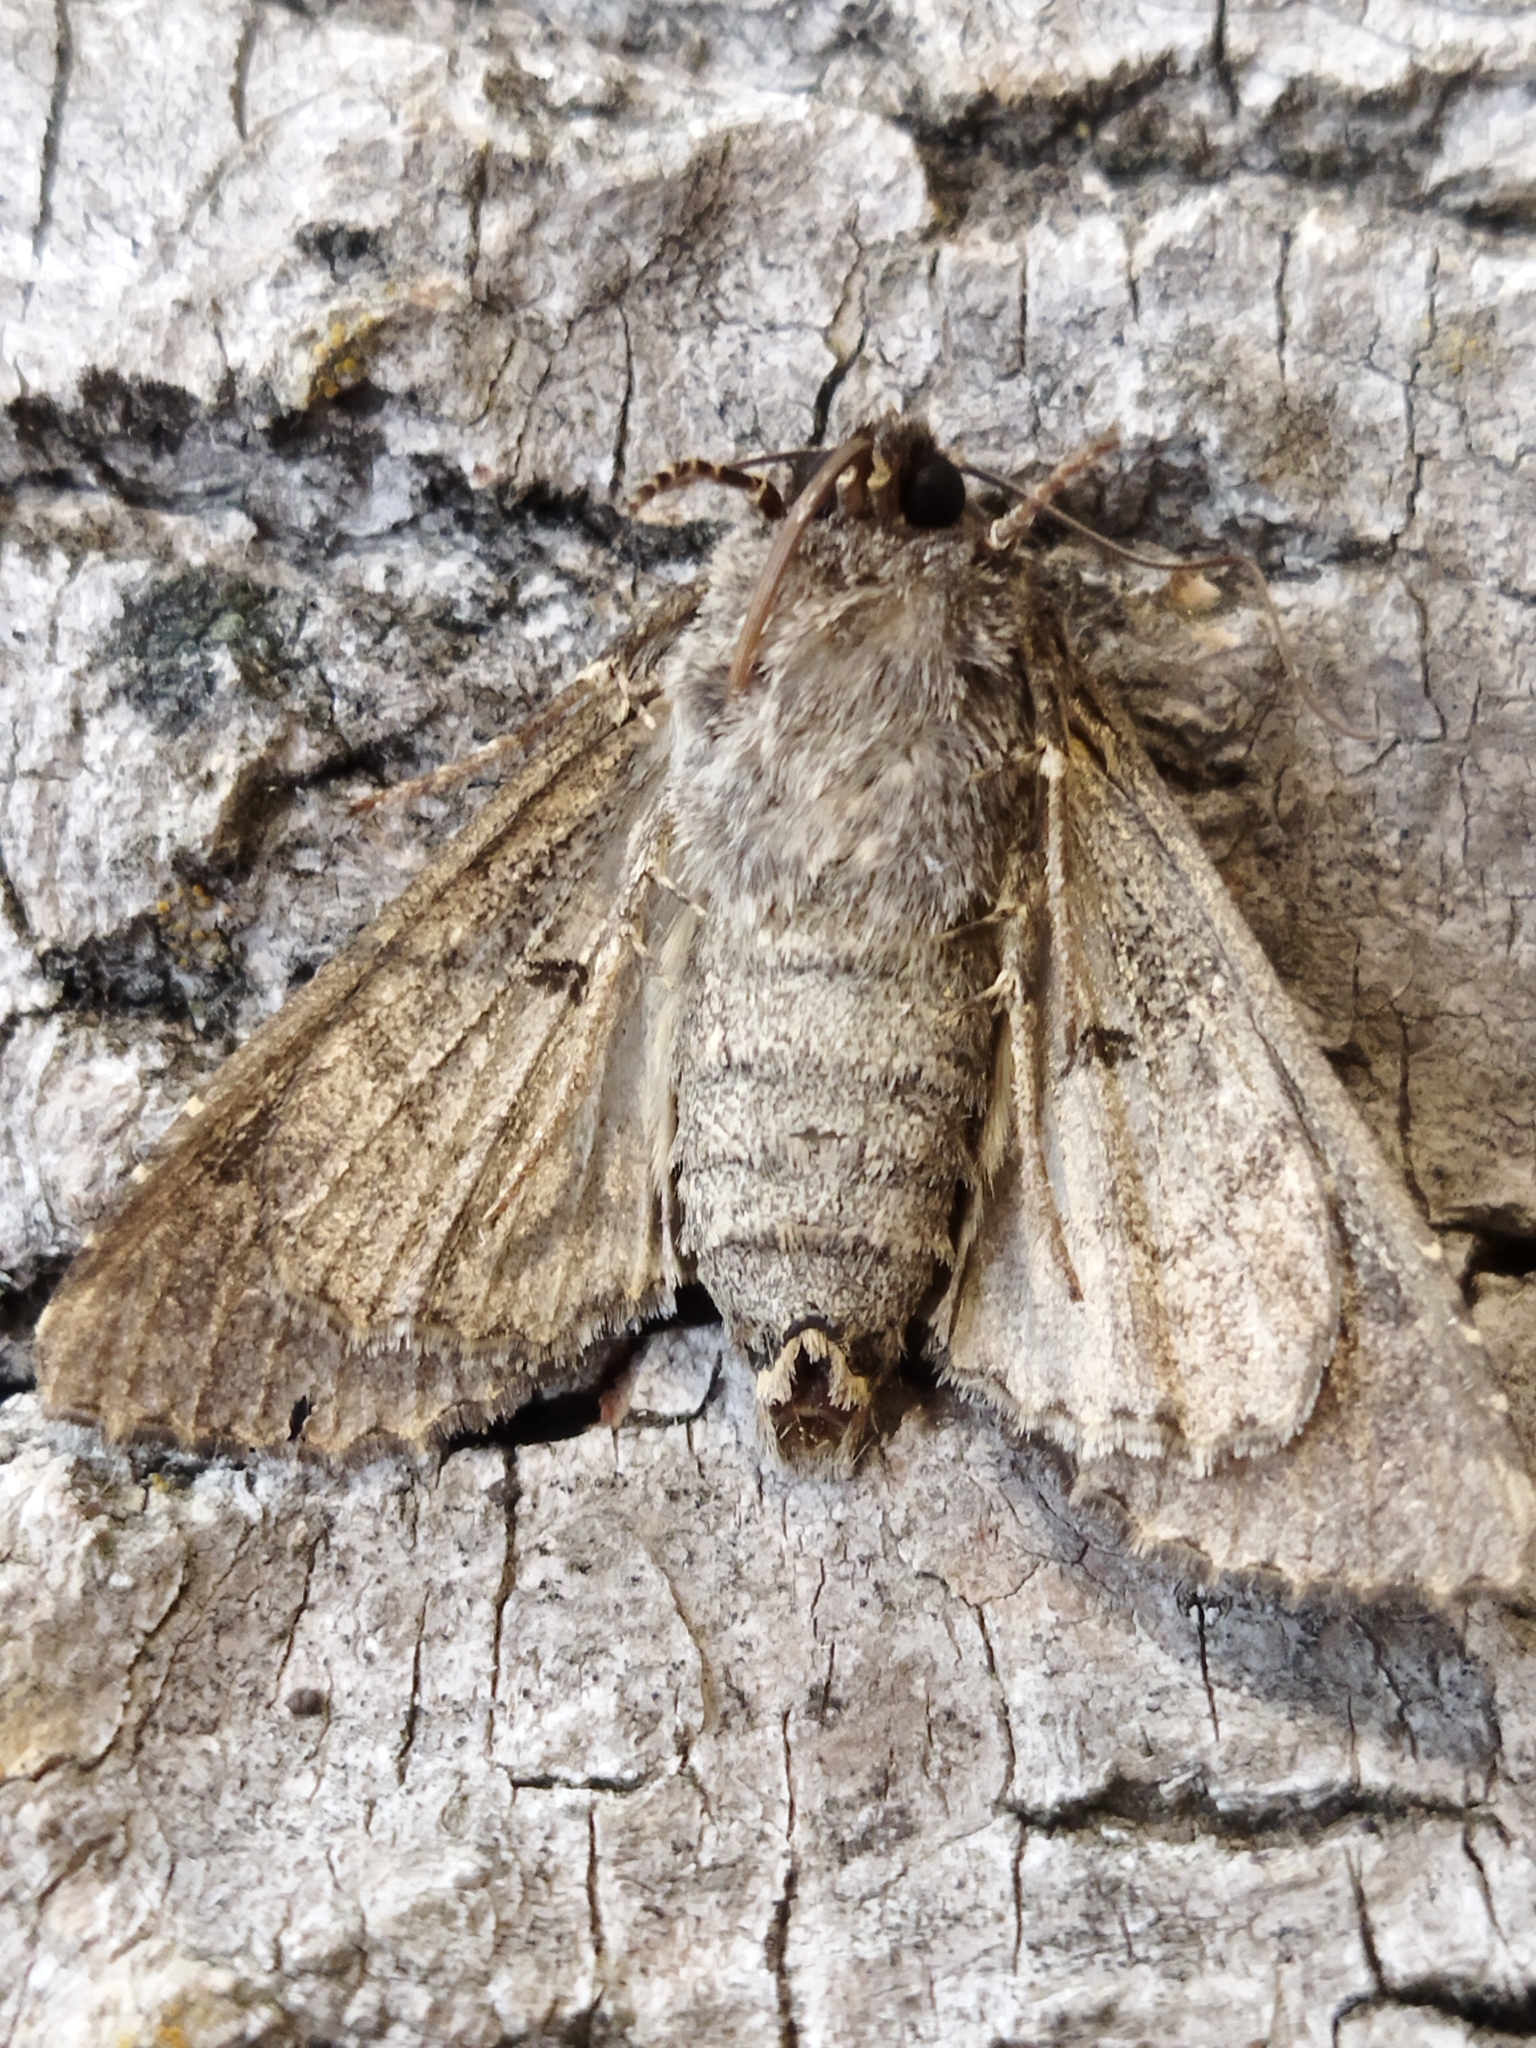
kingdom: Animalia
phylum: Arthropoda
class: Insecta
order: Lepidoptera
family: Noctuidae
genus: Mamestra
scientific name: Mamestra brassicae
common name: Cabbage moth
